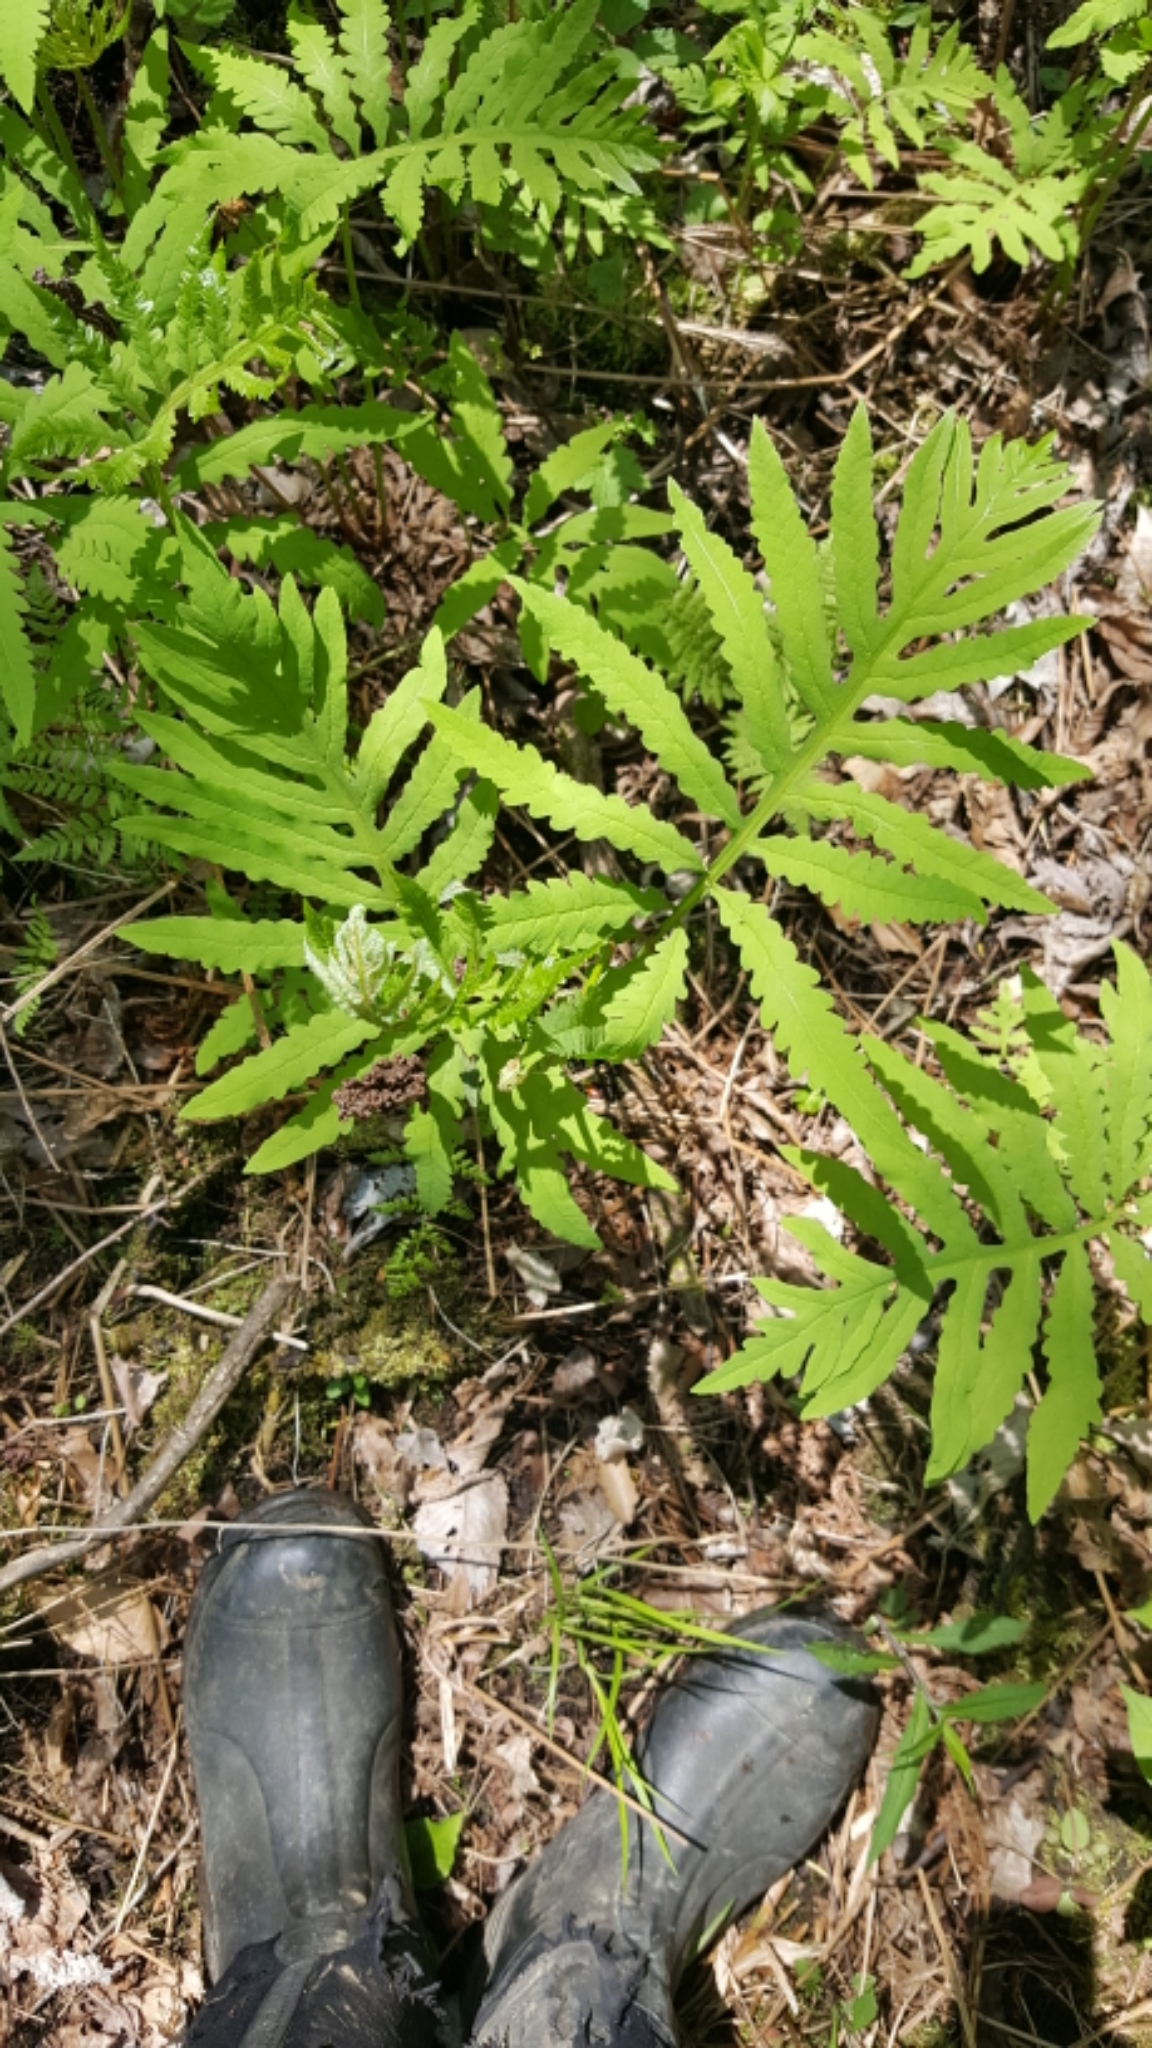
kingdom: Plantae
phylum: Tracheophyta
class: Polypodiopsida
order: Polypodiales
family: Onocleaceae
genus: Onoclea
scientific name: Onoclea sensibilis
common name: Sensitive fern
